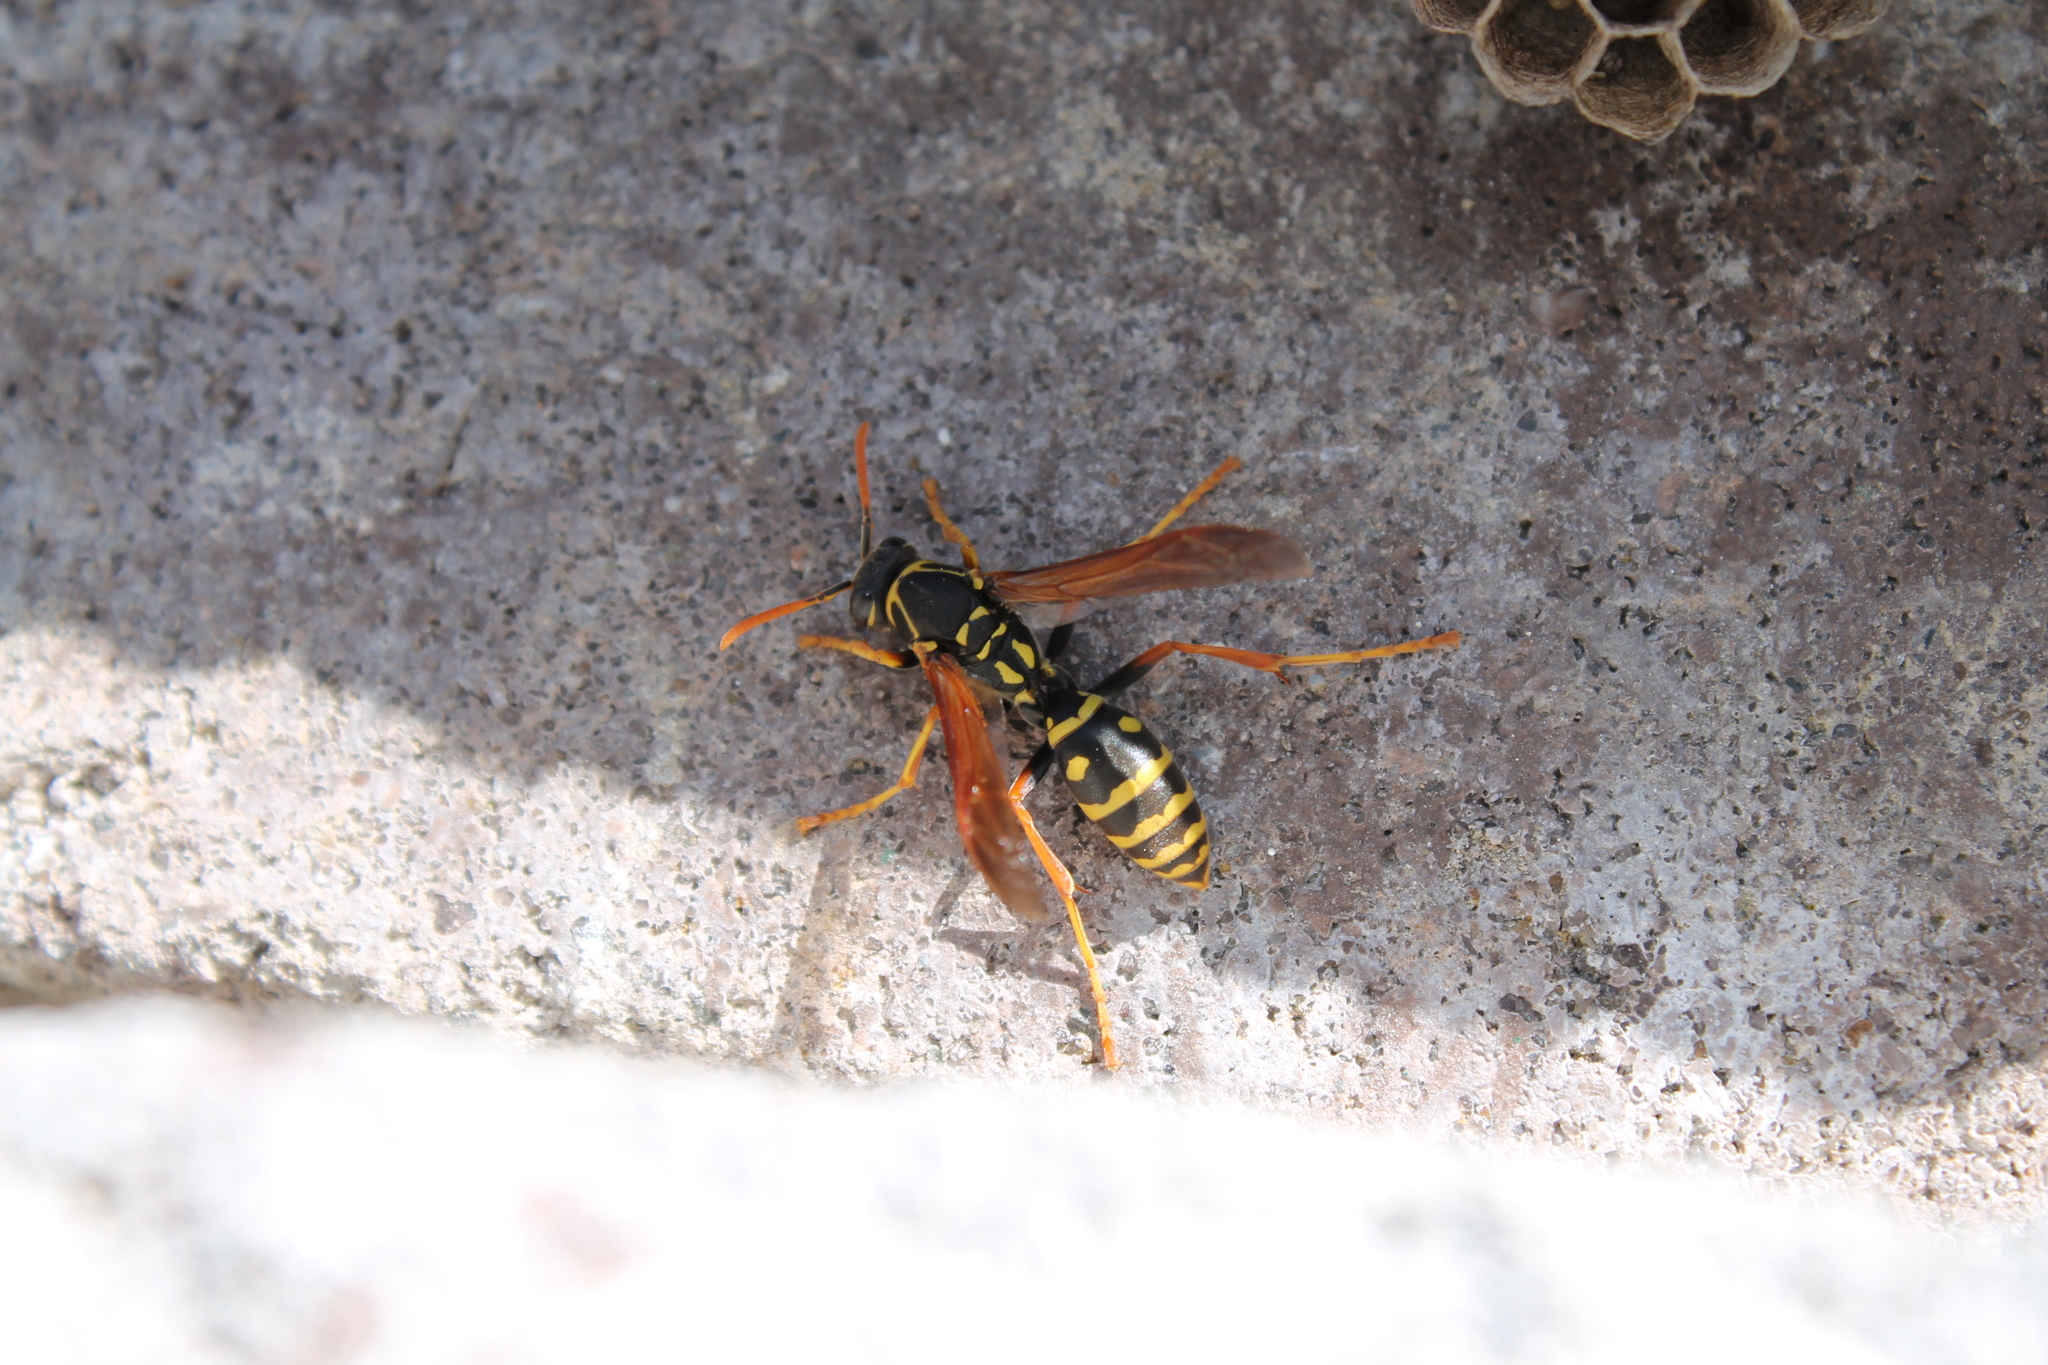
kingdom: Animalia
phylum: Arthropoda
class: Insecta
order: Hymenoptera
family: Eumenidae
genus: Polistes
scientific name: Polistes chinensis
